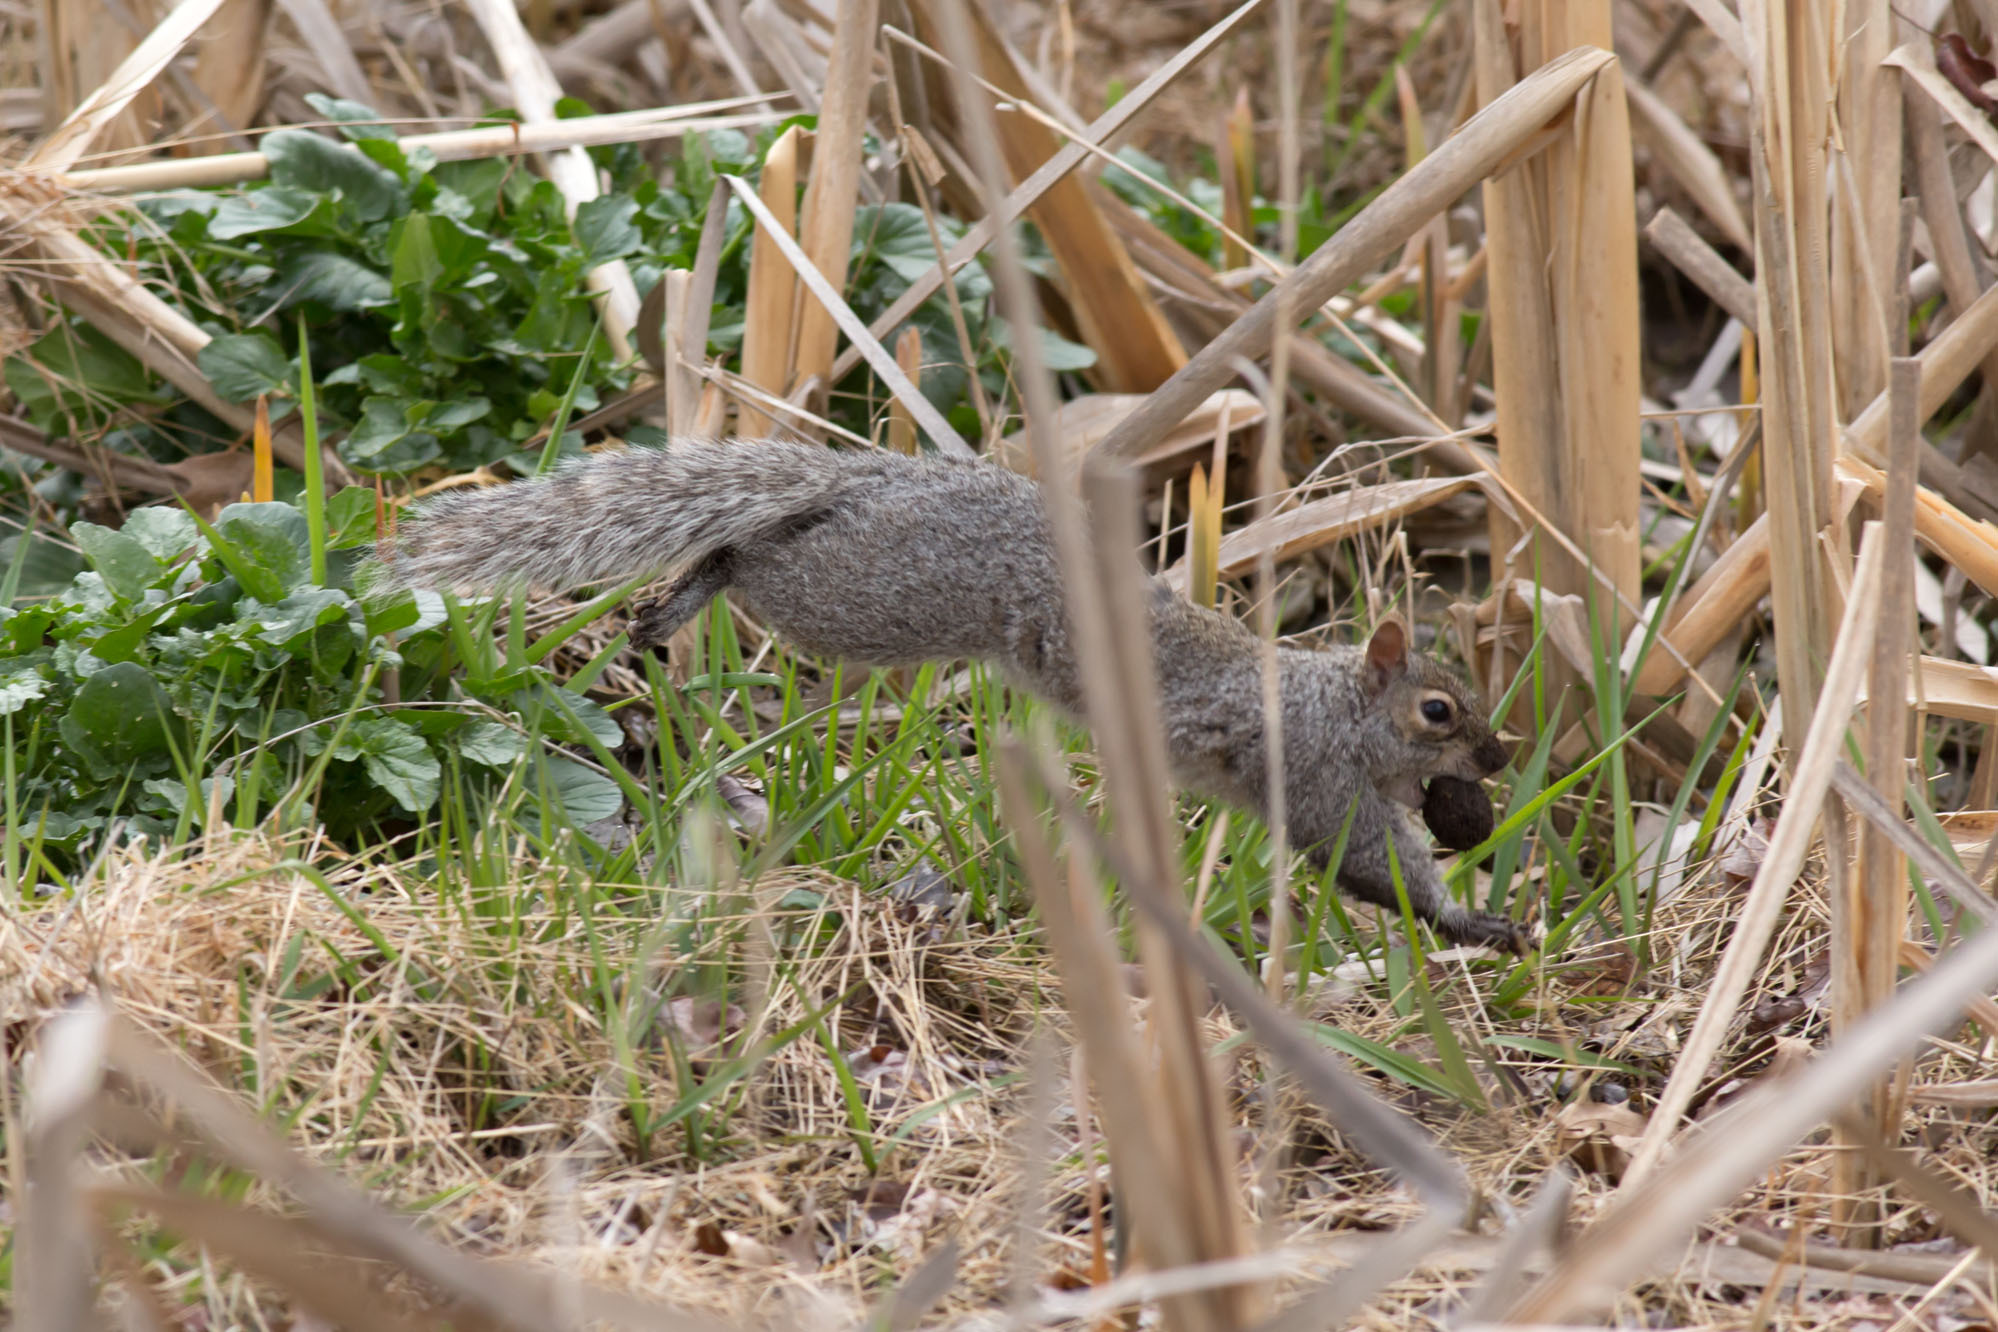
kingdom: Animalia
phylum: Chordata
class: Mammalia
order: Rodentia
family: Sciuridae
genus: Sciurus
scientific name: Sciurus carolinensis
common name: Eastern gray squirrel
